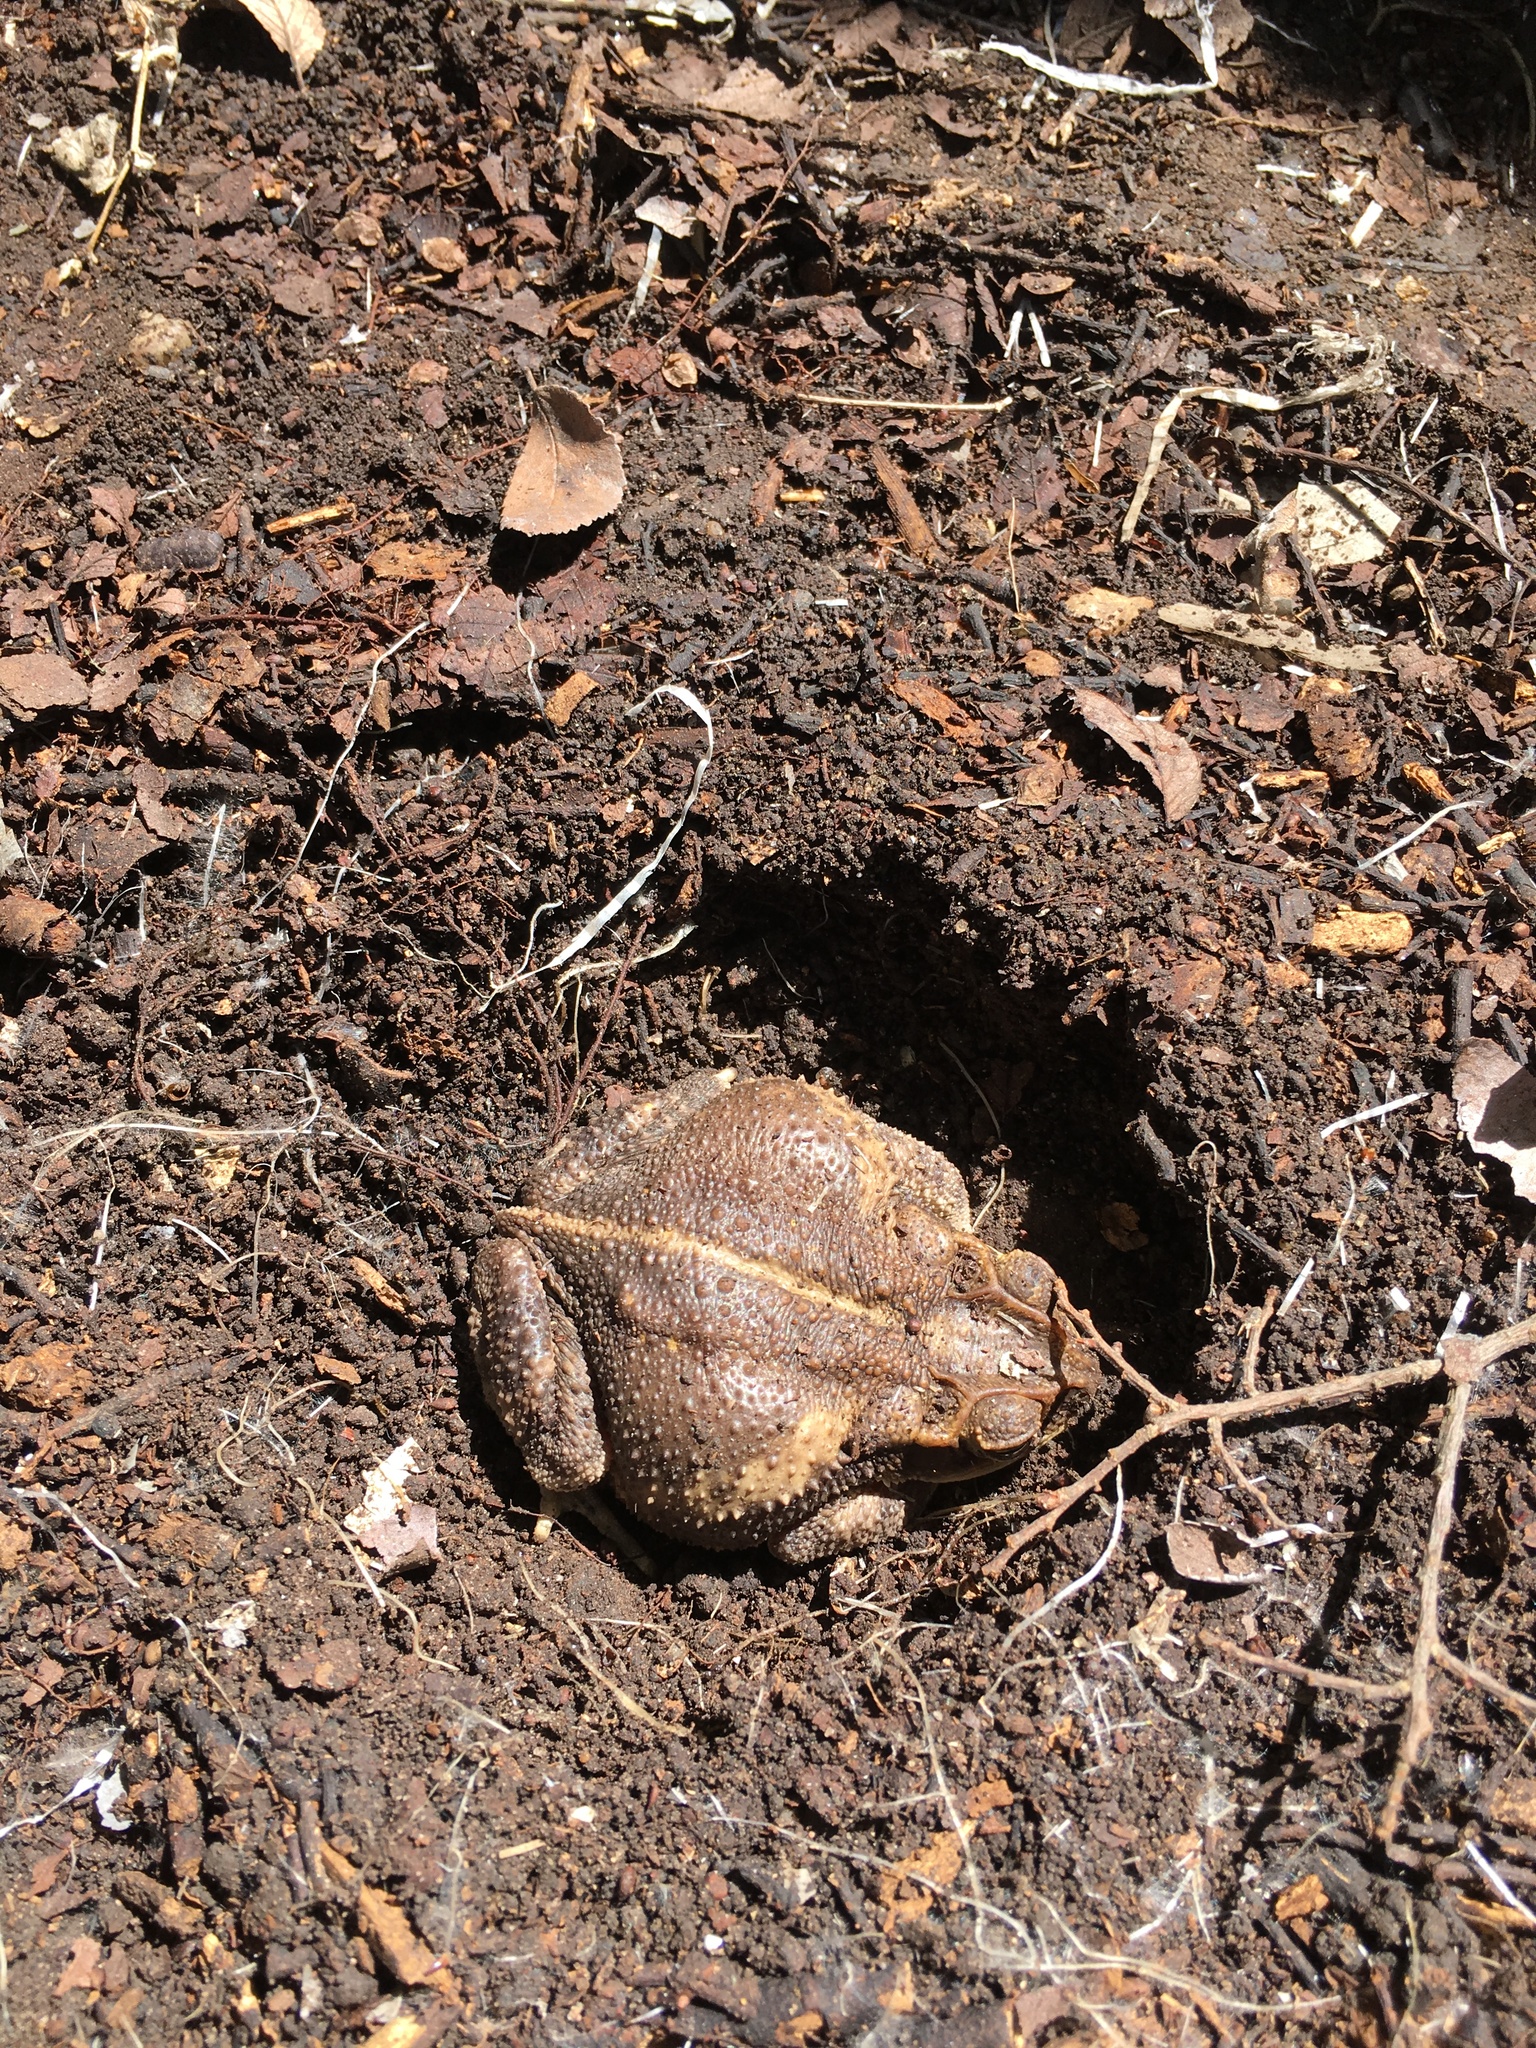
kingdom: Animalia
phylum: Chordata
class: Amphibia
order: Anura
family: Bufonidae
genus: Incilius
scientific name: Incilius nebulifer
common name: Gulf coast toad
